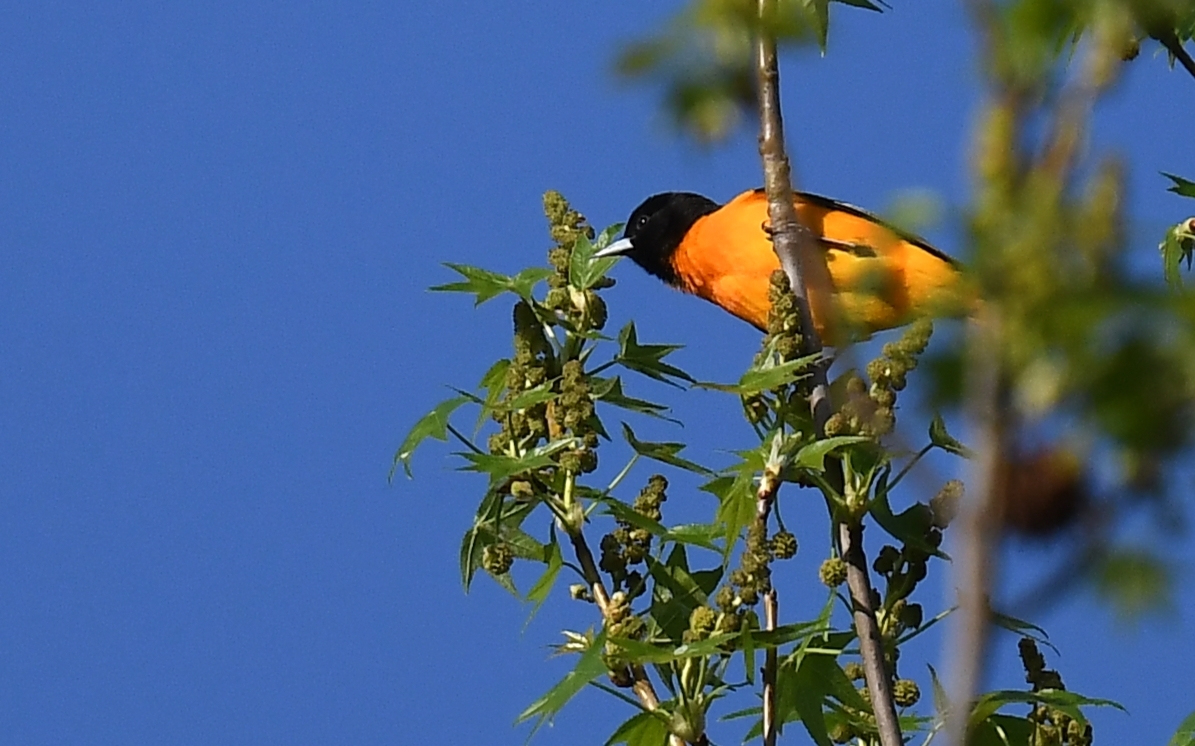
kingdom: Animalia
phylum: Chordata
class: Aves
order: Passeriformes
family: Icteridae
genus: Icterus
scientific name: Icterus galbula
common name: Baltimore oriole
